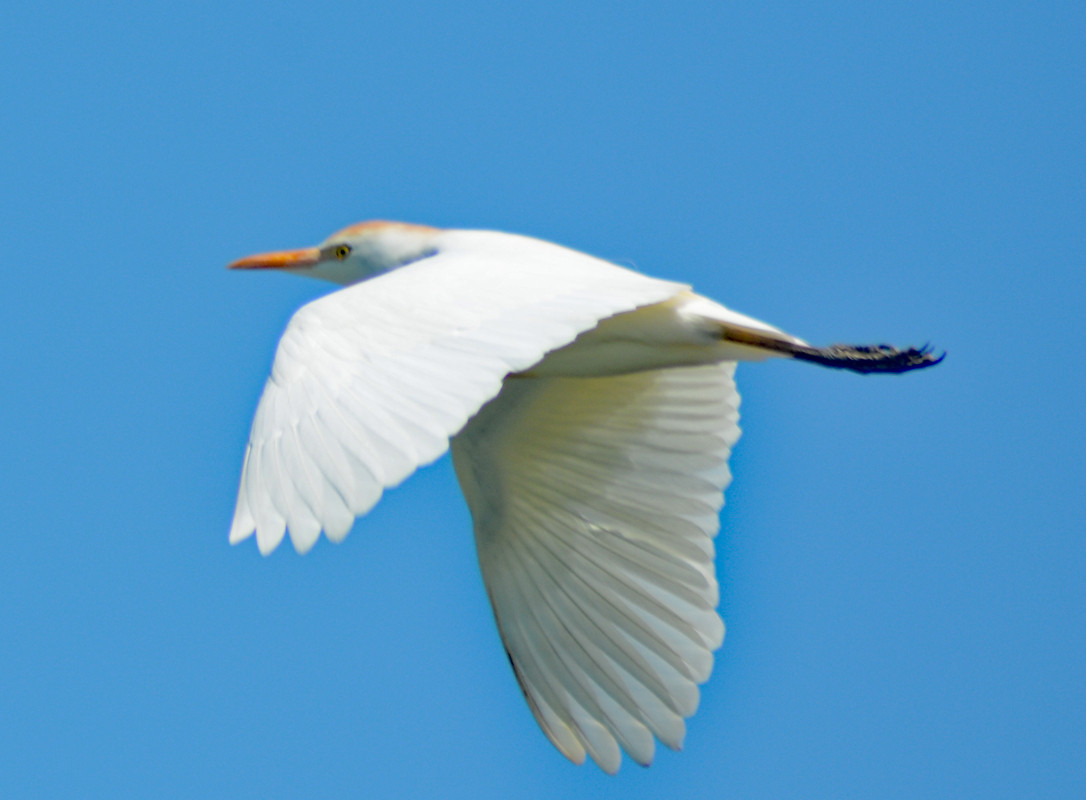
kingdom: Animalia
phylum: Chordata
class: Aves
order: Pelecaniformes
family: Ardeidae
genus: Bubulcus
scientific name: Bubulcus ibis
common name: Cattle egret
